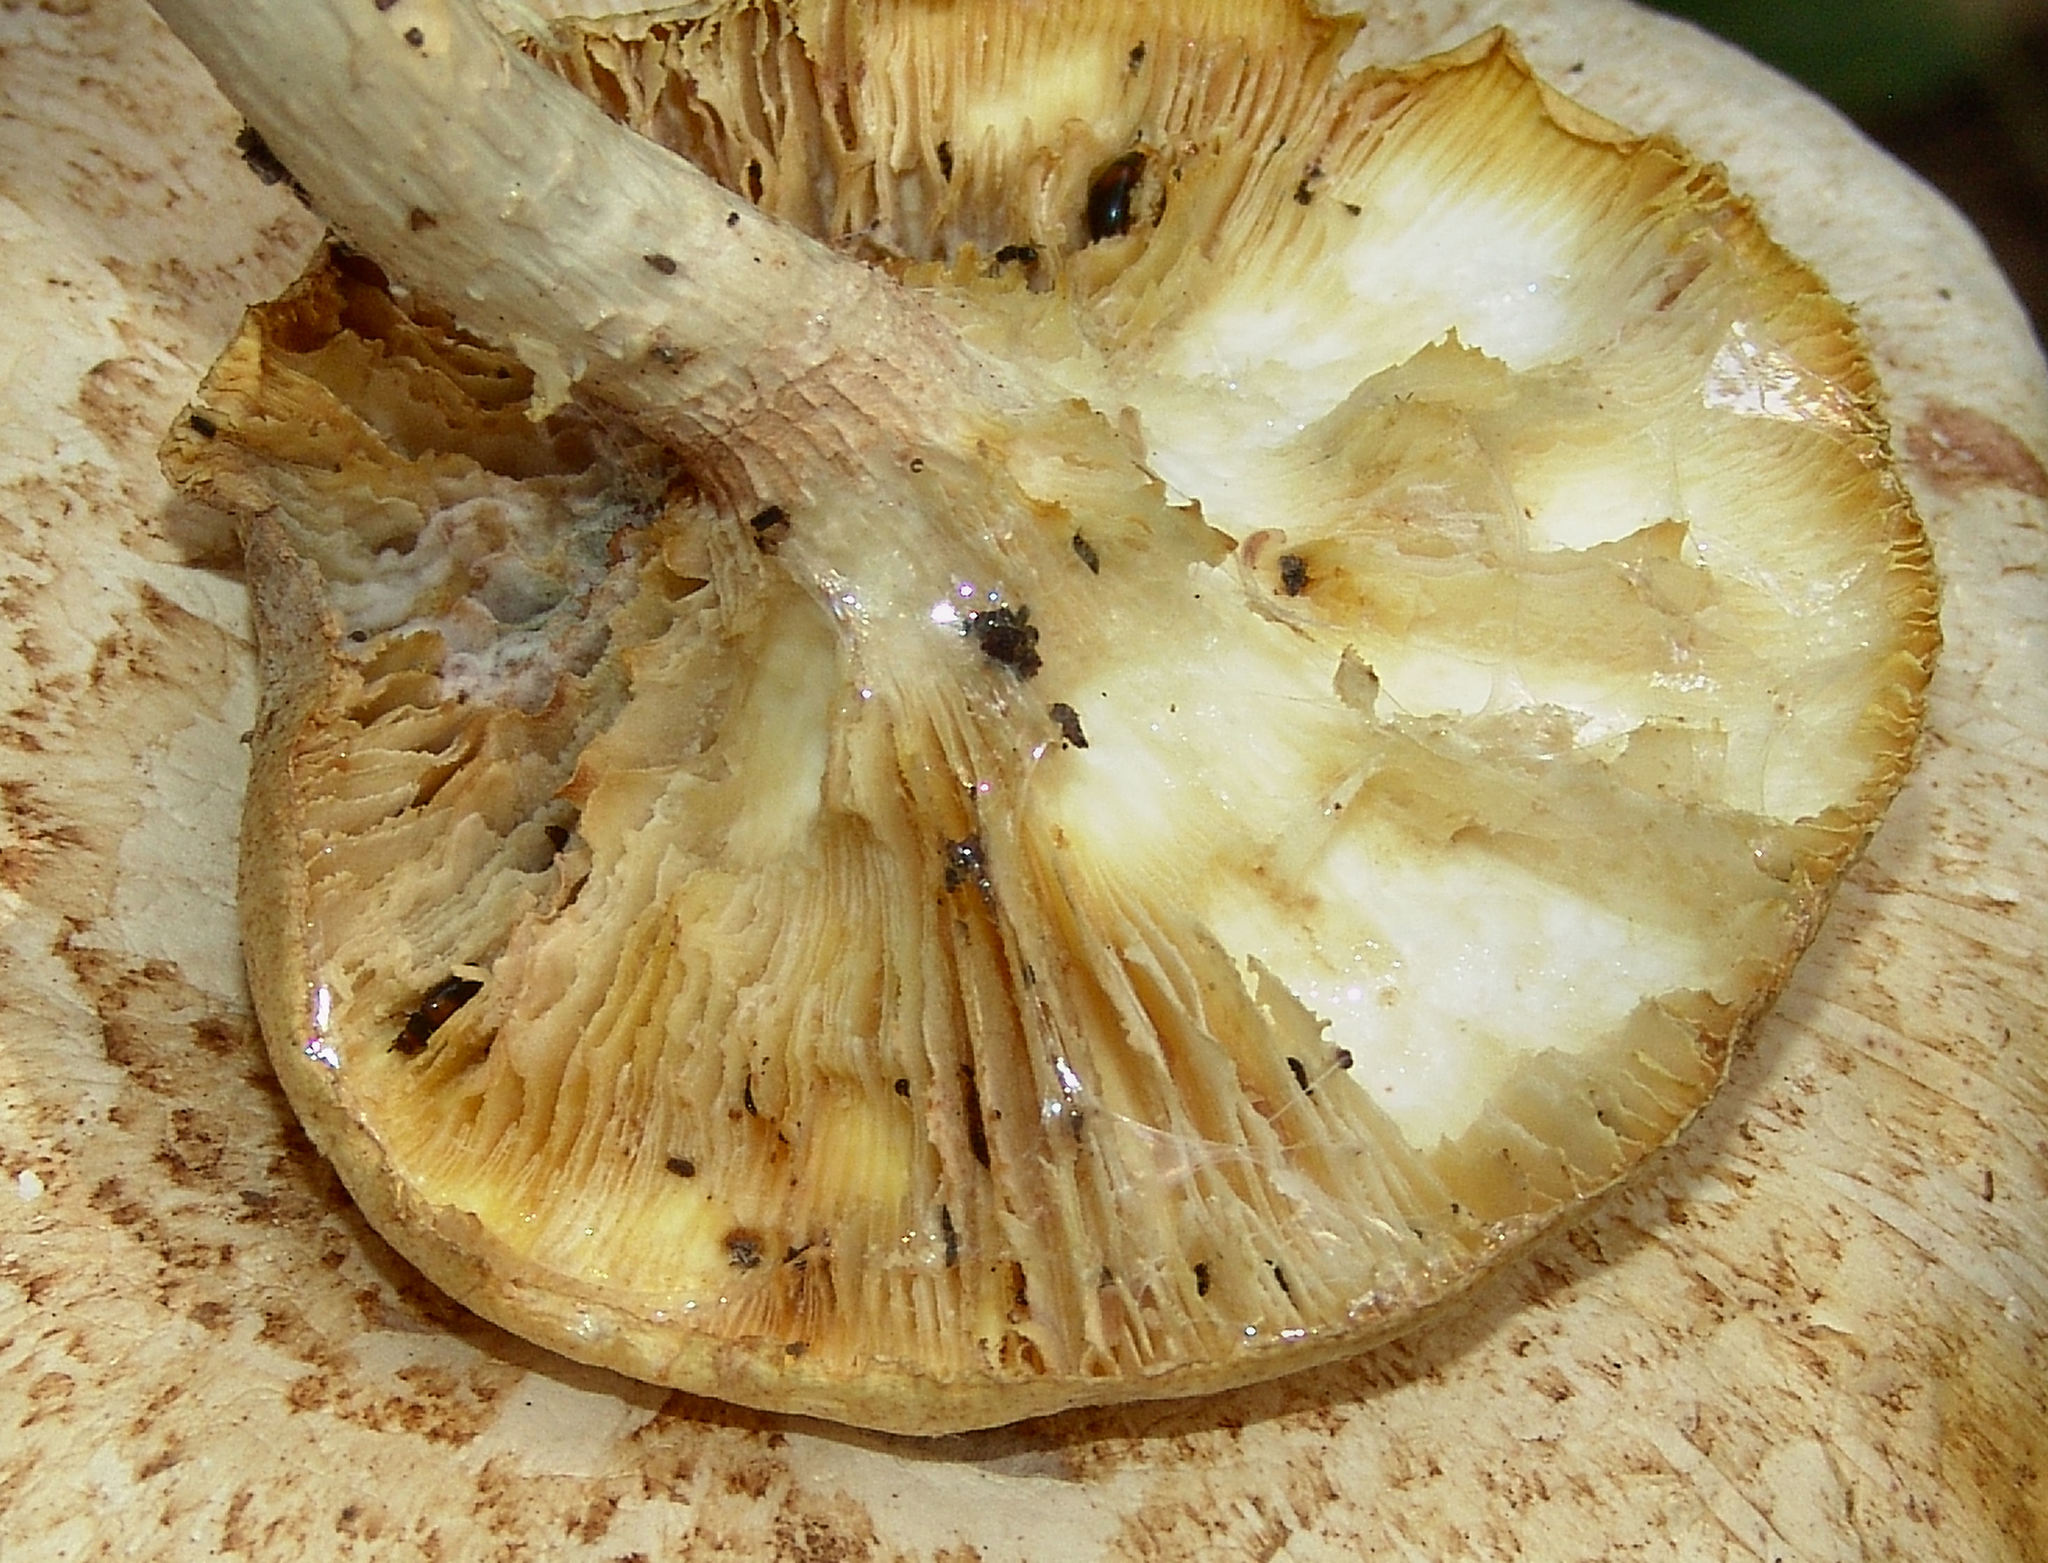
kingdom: Fungi
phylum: Basidiomycota
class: Agaricomycetes
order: Gloeophyllales
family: Gloeophyllaceae
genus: Neolentinus
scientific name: Neolentinus lepideus
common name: Scaly sawgill
